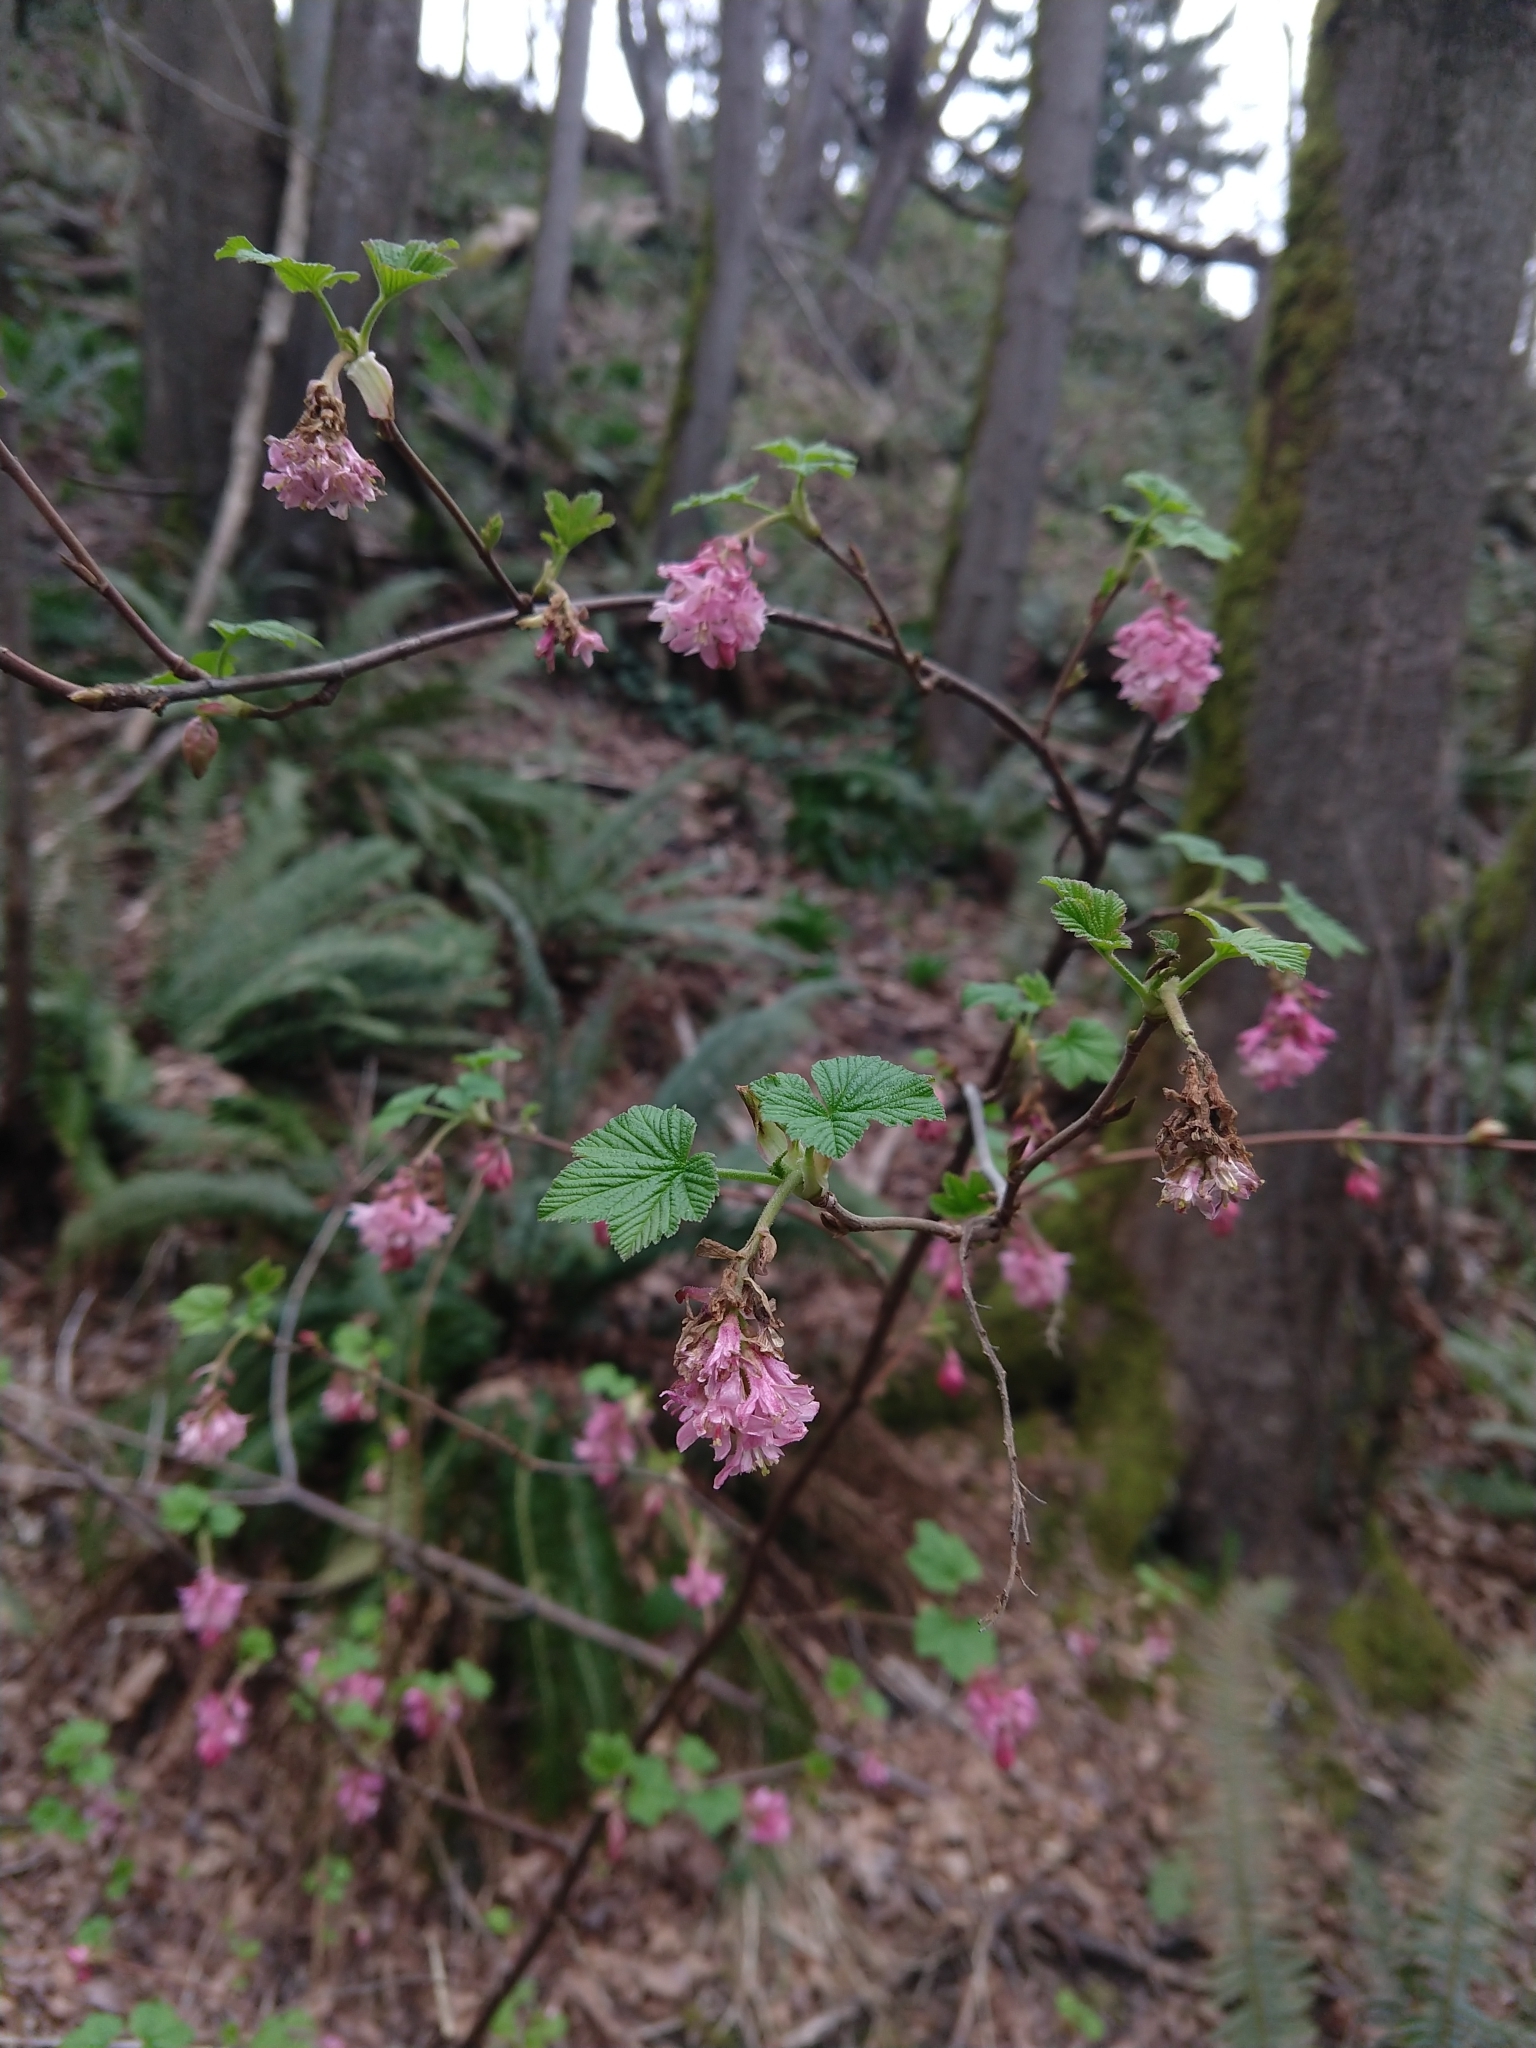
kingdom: Plantae
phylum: Tracheophyta
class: Magnoliopsida
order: Saxifragales
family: Grossulariaceae
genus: Ribes
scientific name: Ribes sanguineum
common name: Flowering currant
